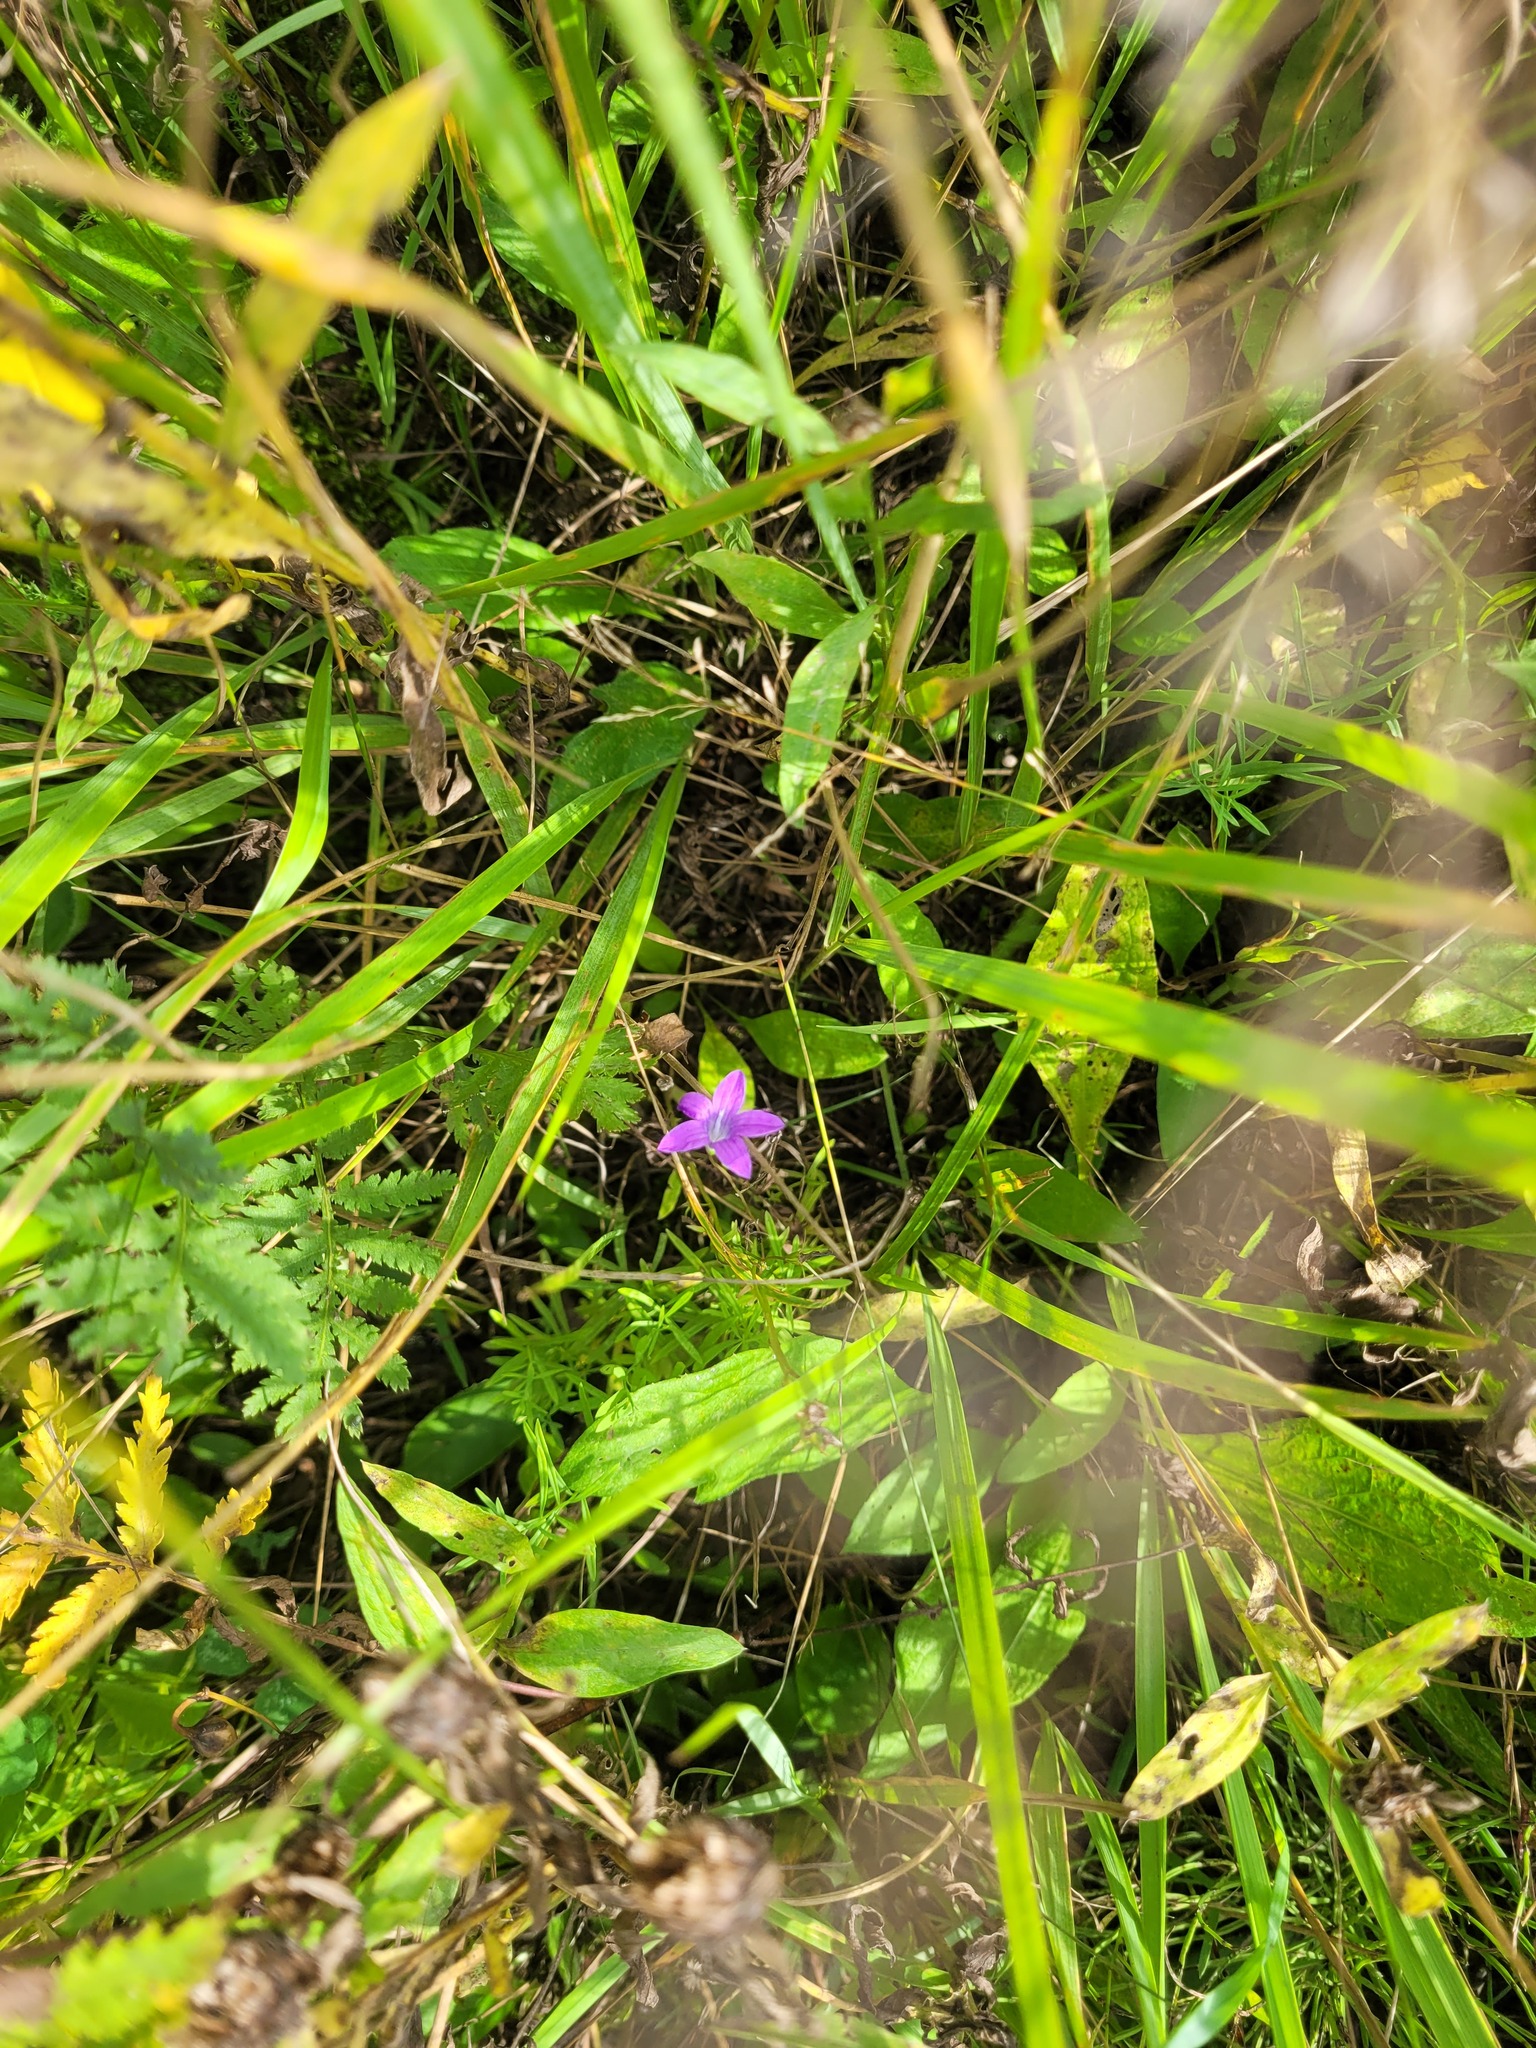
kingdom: Plantae
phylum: Tracheophyta
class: Magnoliopsida
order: Asterales
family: Campanulaceae
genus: Campanula
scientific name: Campanula patula
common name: Spreading bellflower
